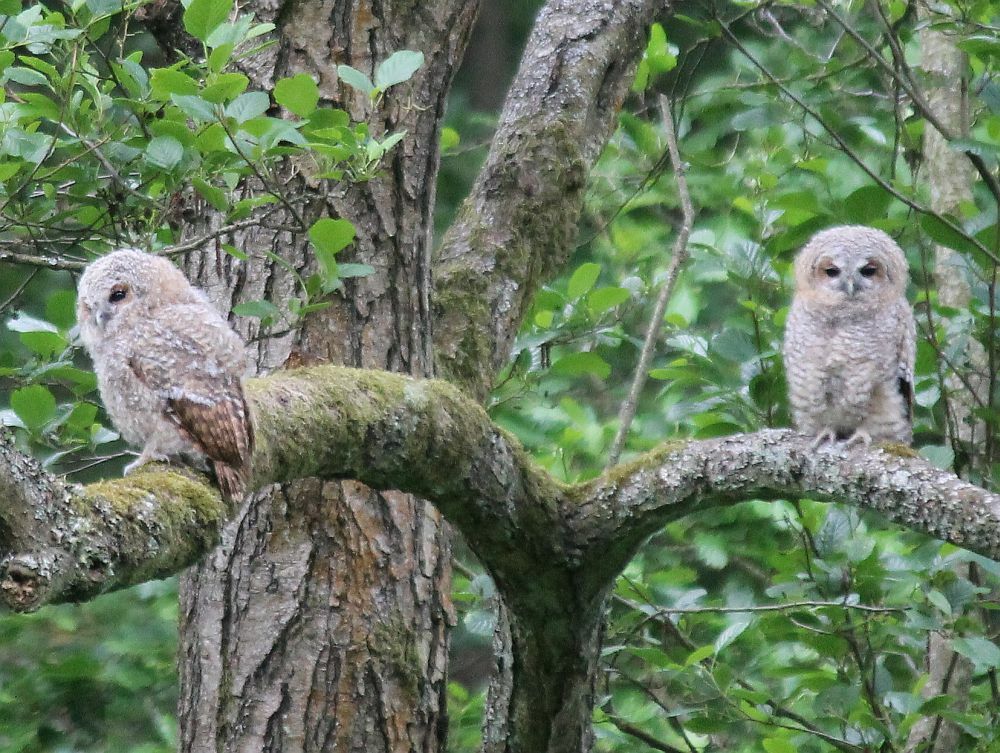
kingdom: Animalia
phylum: Chordata
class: Aves
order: Strigiformes
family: Strigidae
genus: Strix
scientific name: Strix aluco
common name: Tawny owl
